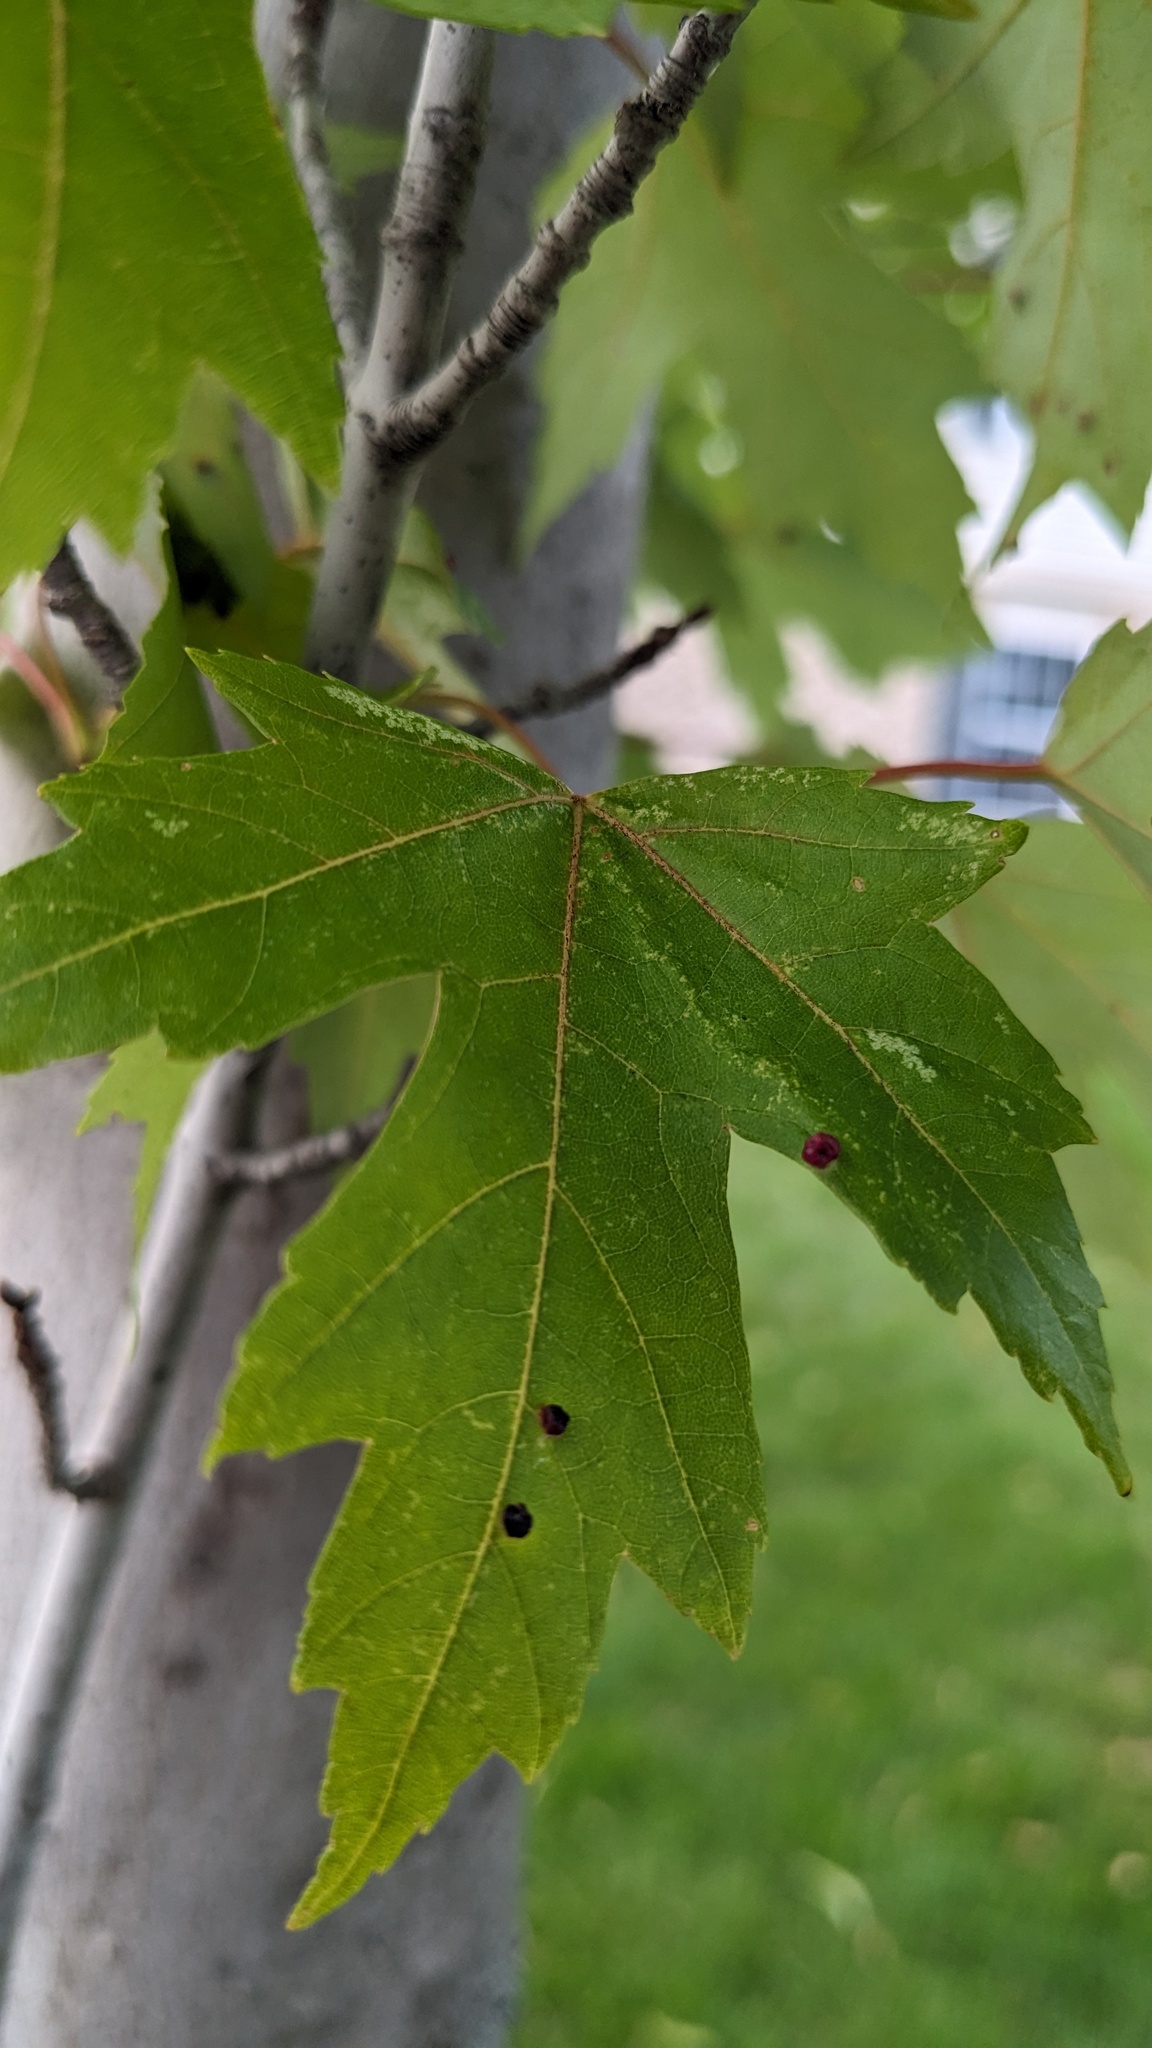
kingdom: Animalia
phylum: Arthropoda
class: Arachnida
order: Trombidiformes
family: Eriophyidae
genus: Vasates
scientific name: Vasates quadripedes
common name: Maple bladder gall mite
